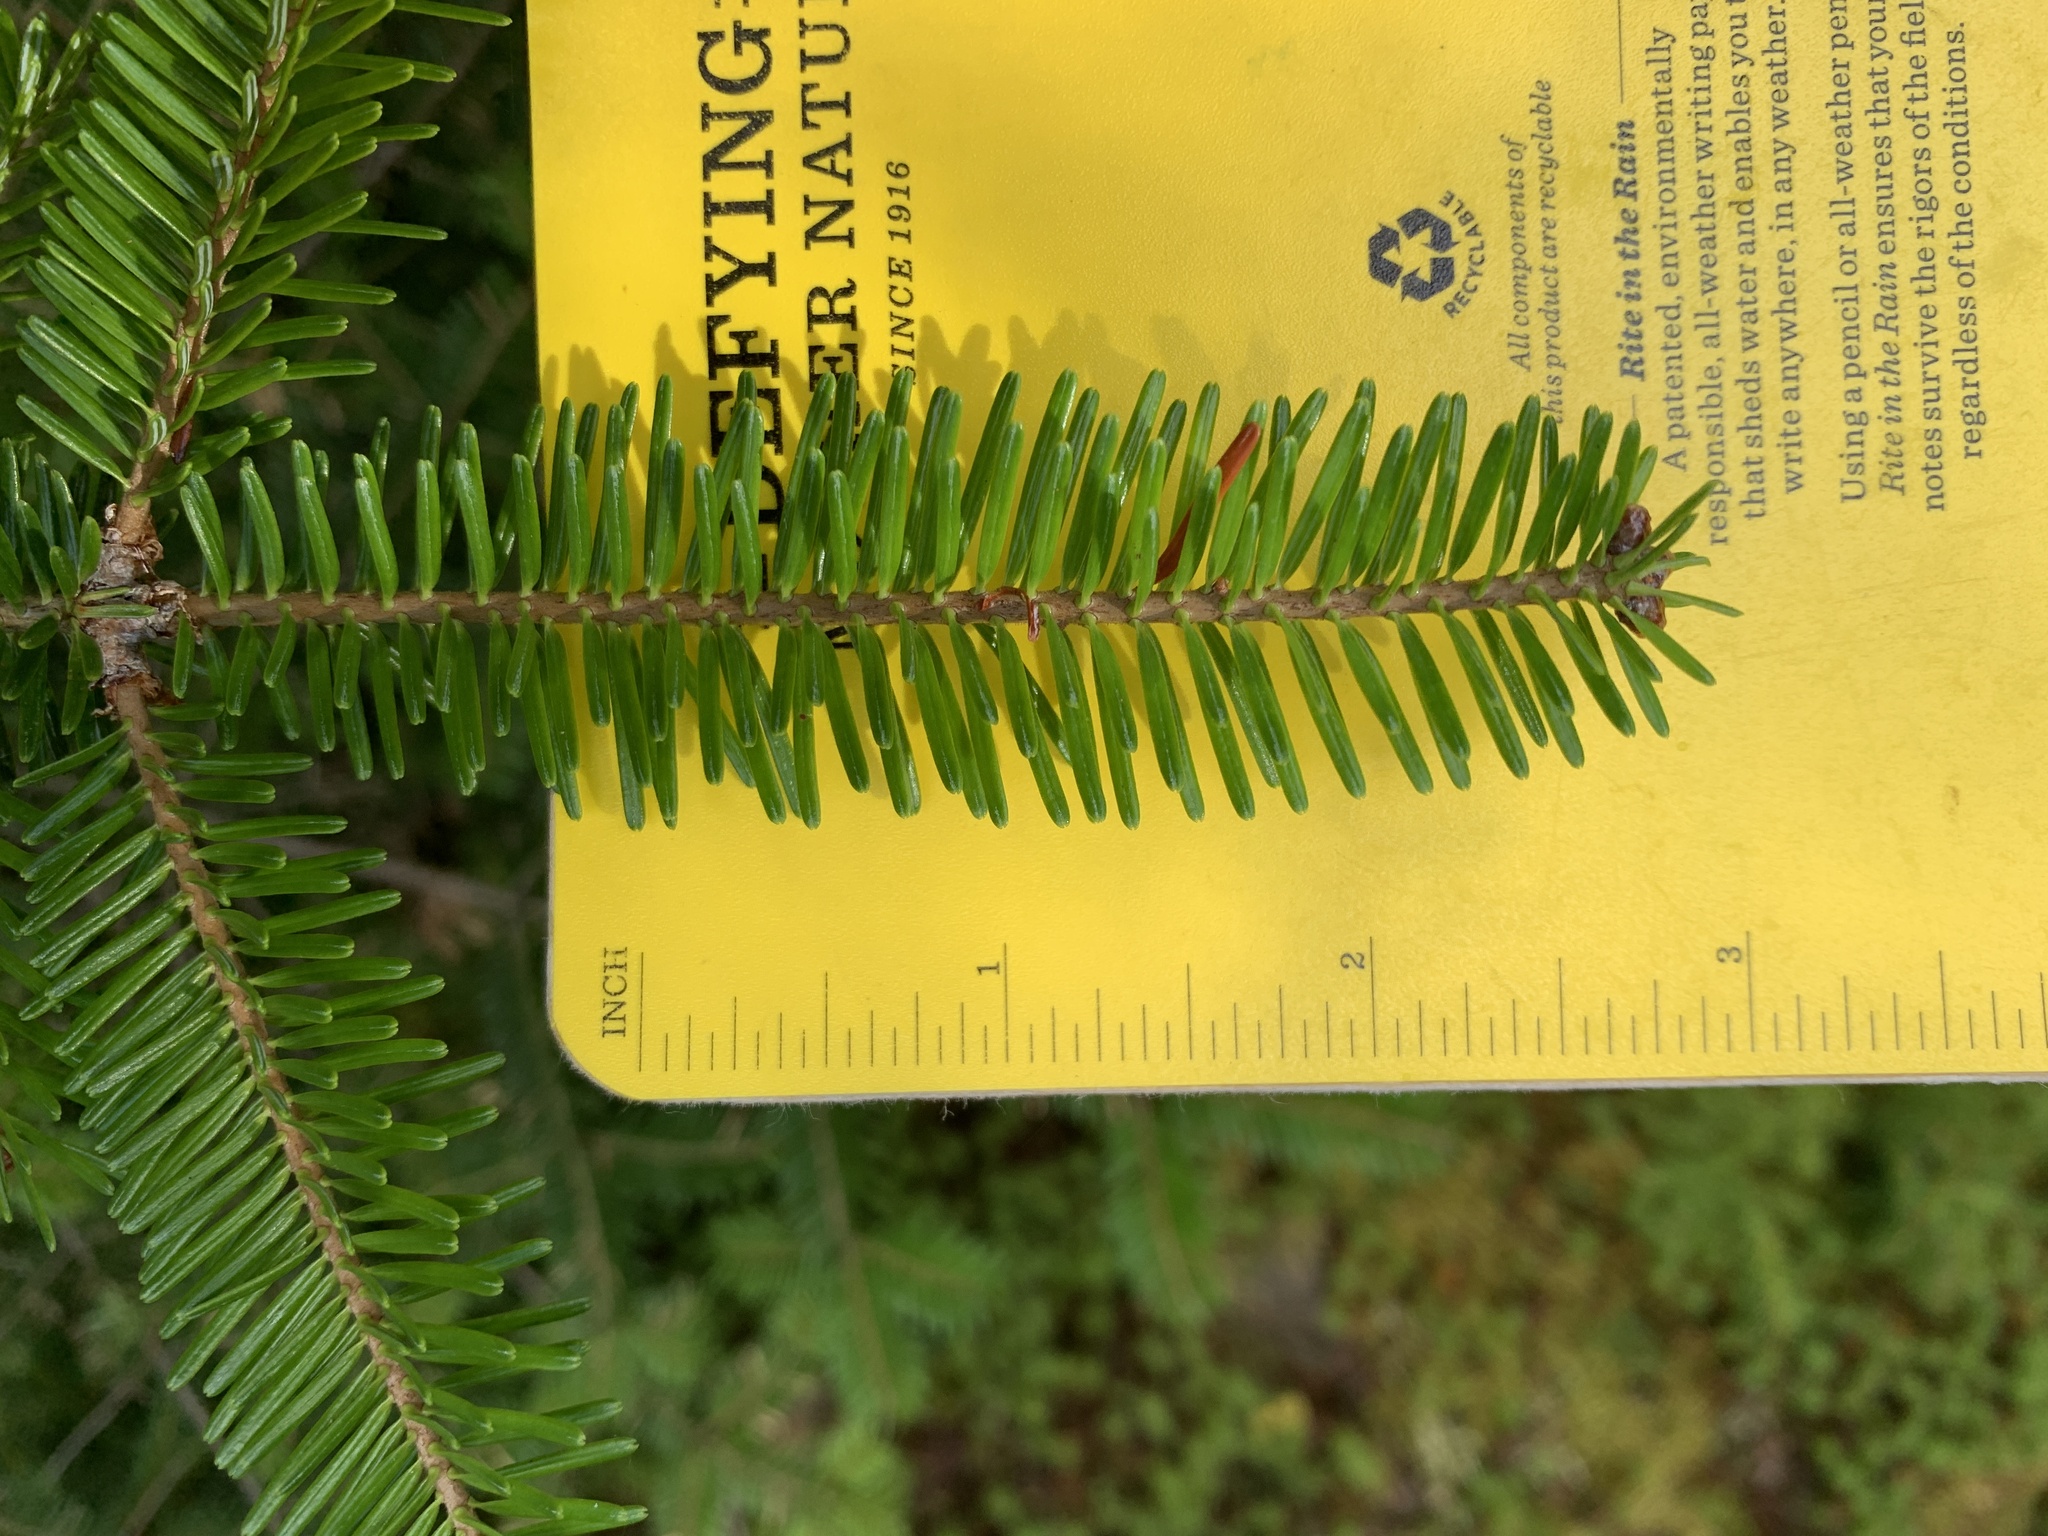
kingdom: Plantae
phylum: Tracheophyta
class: Pinopsida
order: Pinales
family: Pinaceae
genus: Abies
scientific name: Abies balsamea
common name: Balsam fir
